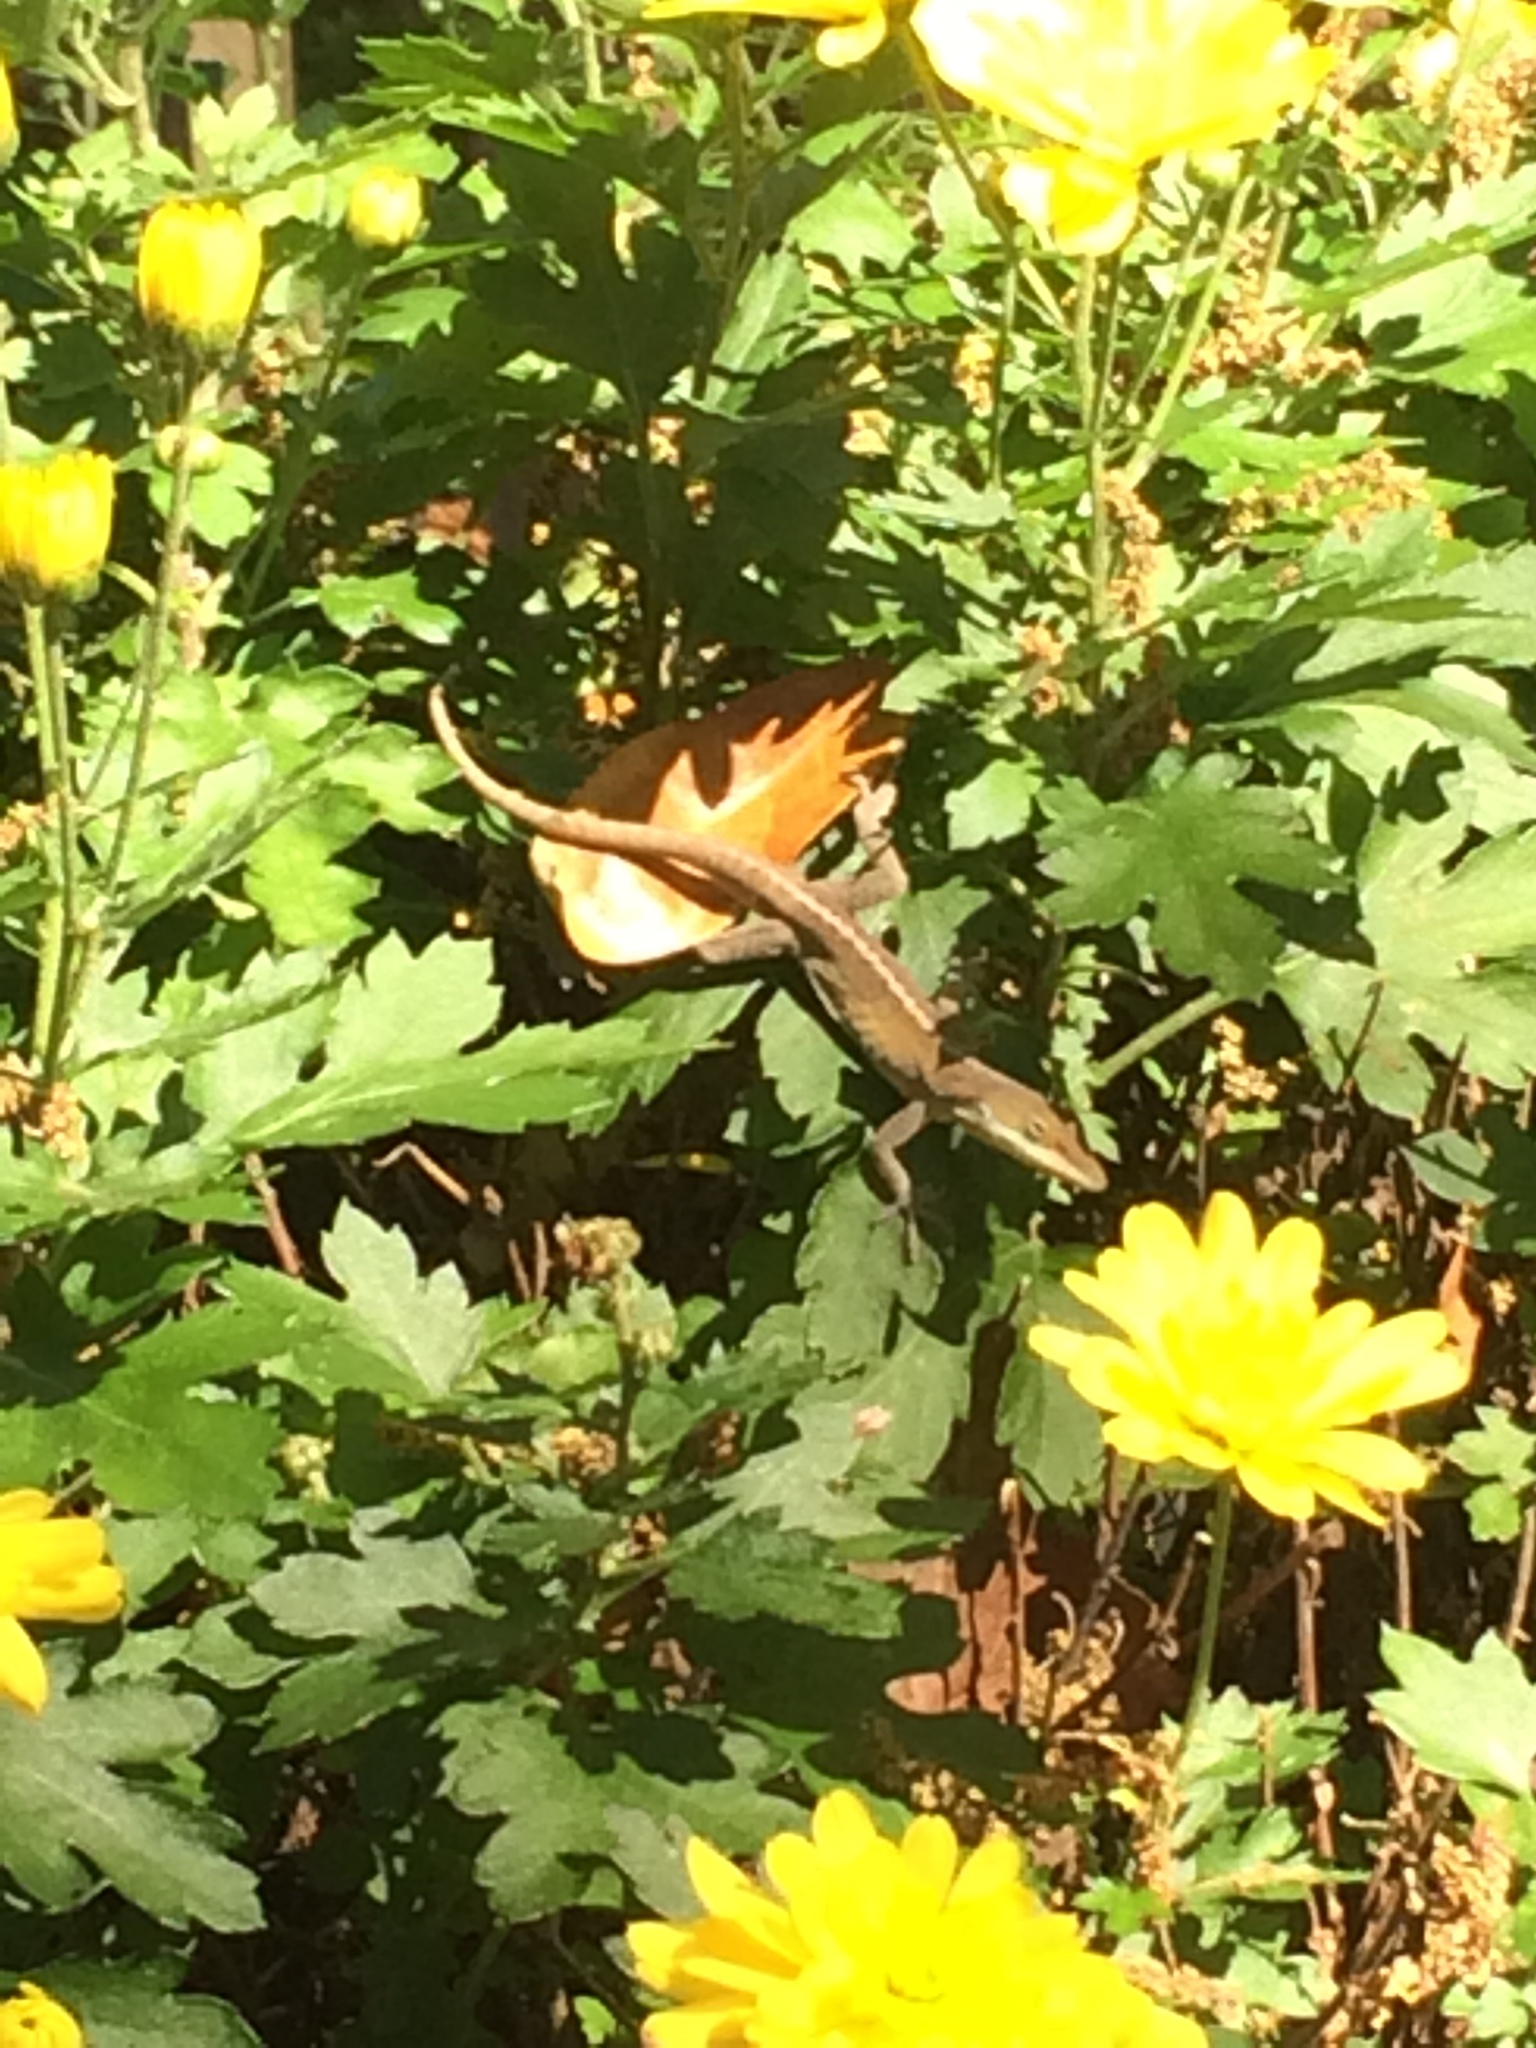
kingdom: Animalia
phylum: Chordata
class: Squamata
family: Dactyloidae
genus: Anolis
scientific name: Anolis carolinensis
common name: Green anole
